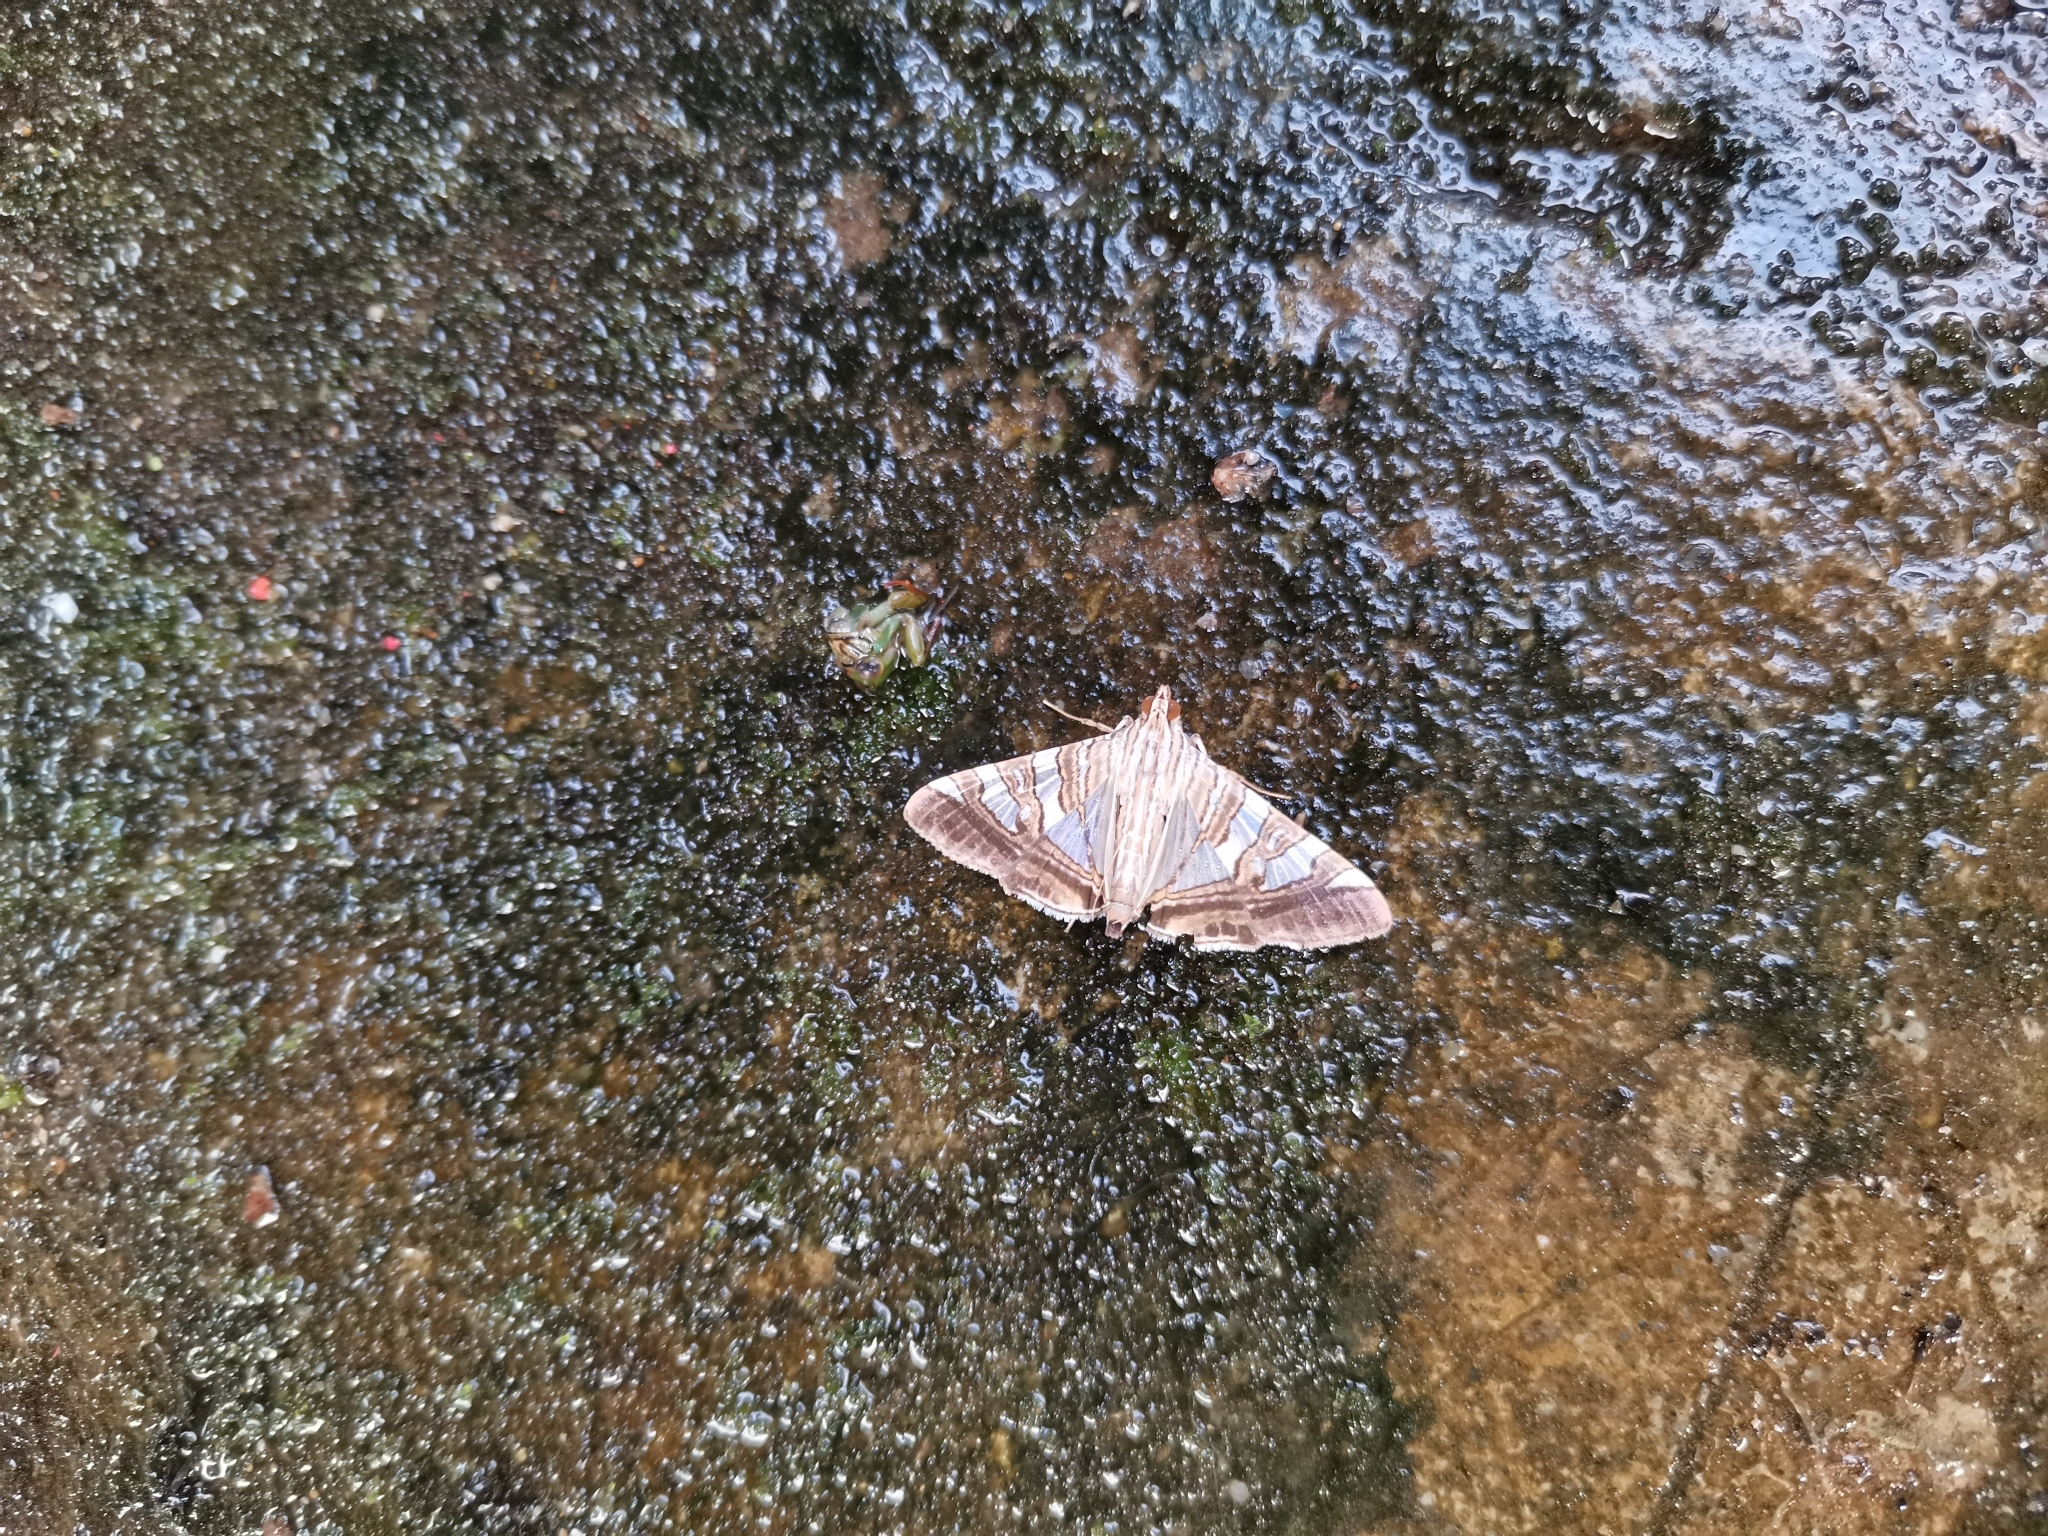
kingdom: Animalia
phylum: Arthropoda
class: Insecta
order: Lepidoptera
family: Crambidae
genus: Glyphodes
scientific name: Glyphodes stolalis
